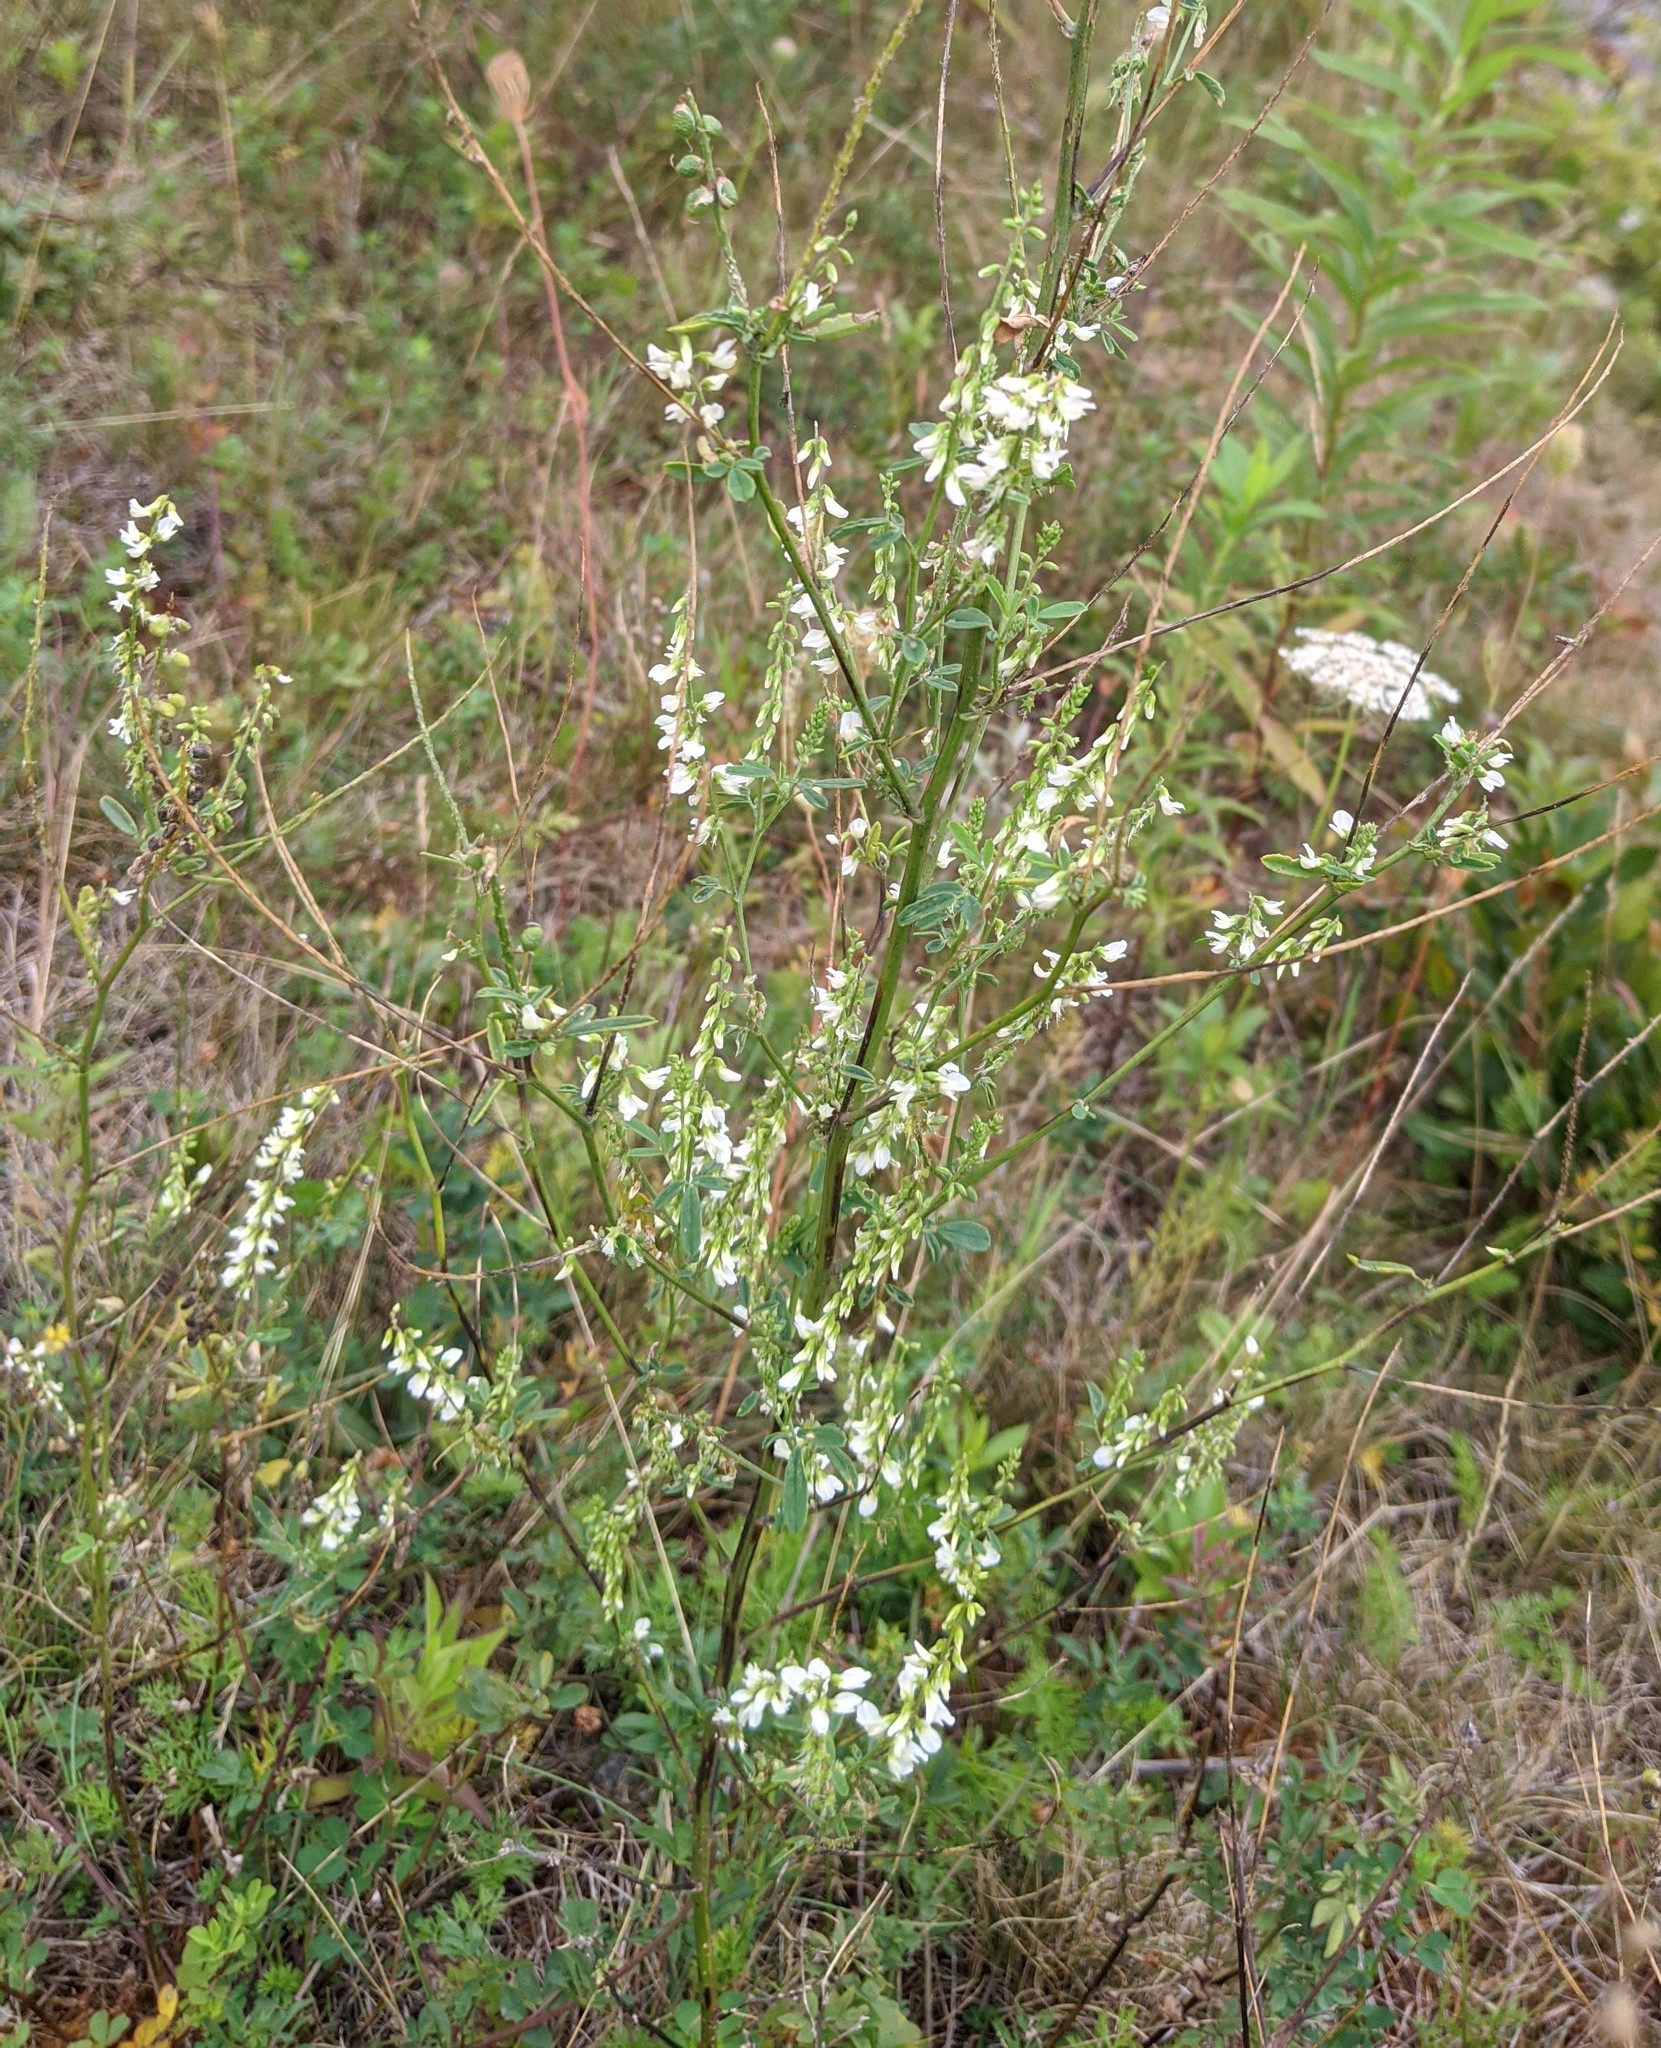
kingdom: Plantae
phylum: Tracheophyta
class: Magnoliopsida
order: Fabales
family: Fabaceae
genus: Melilotus
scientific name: Melilotus albus
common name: White melilot
